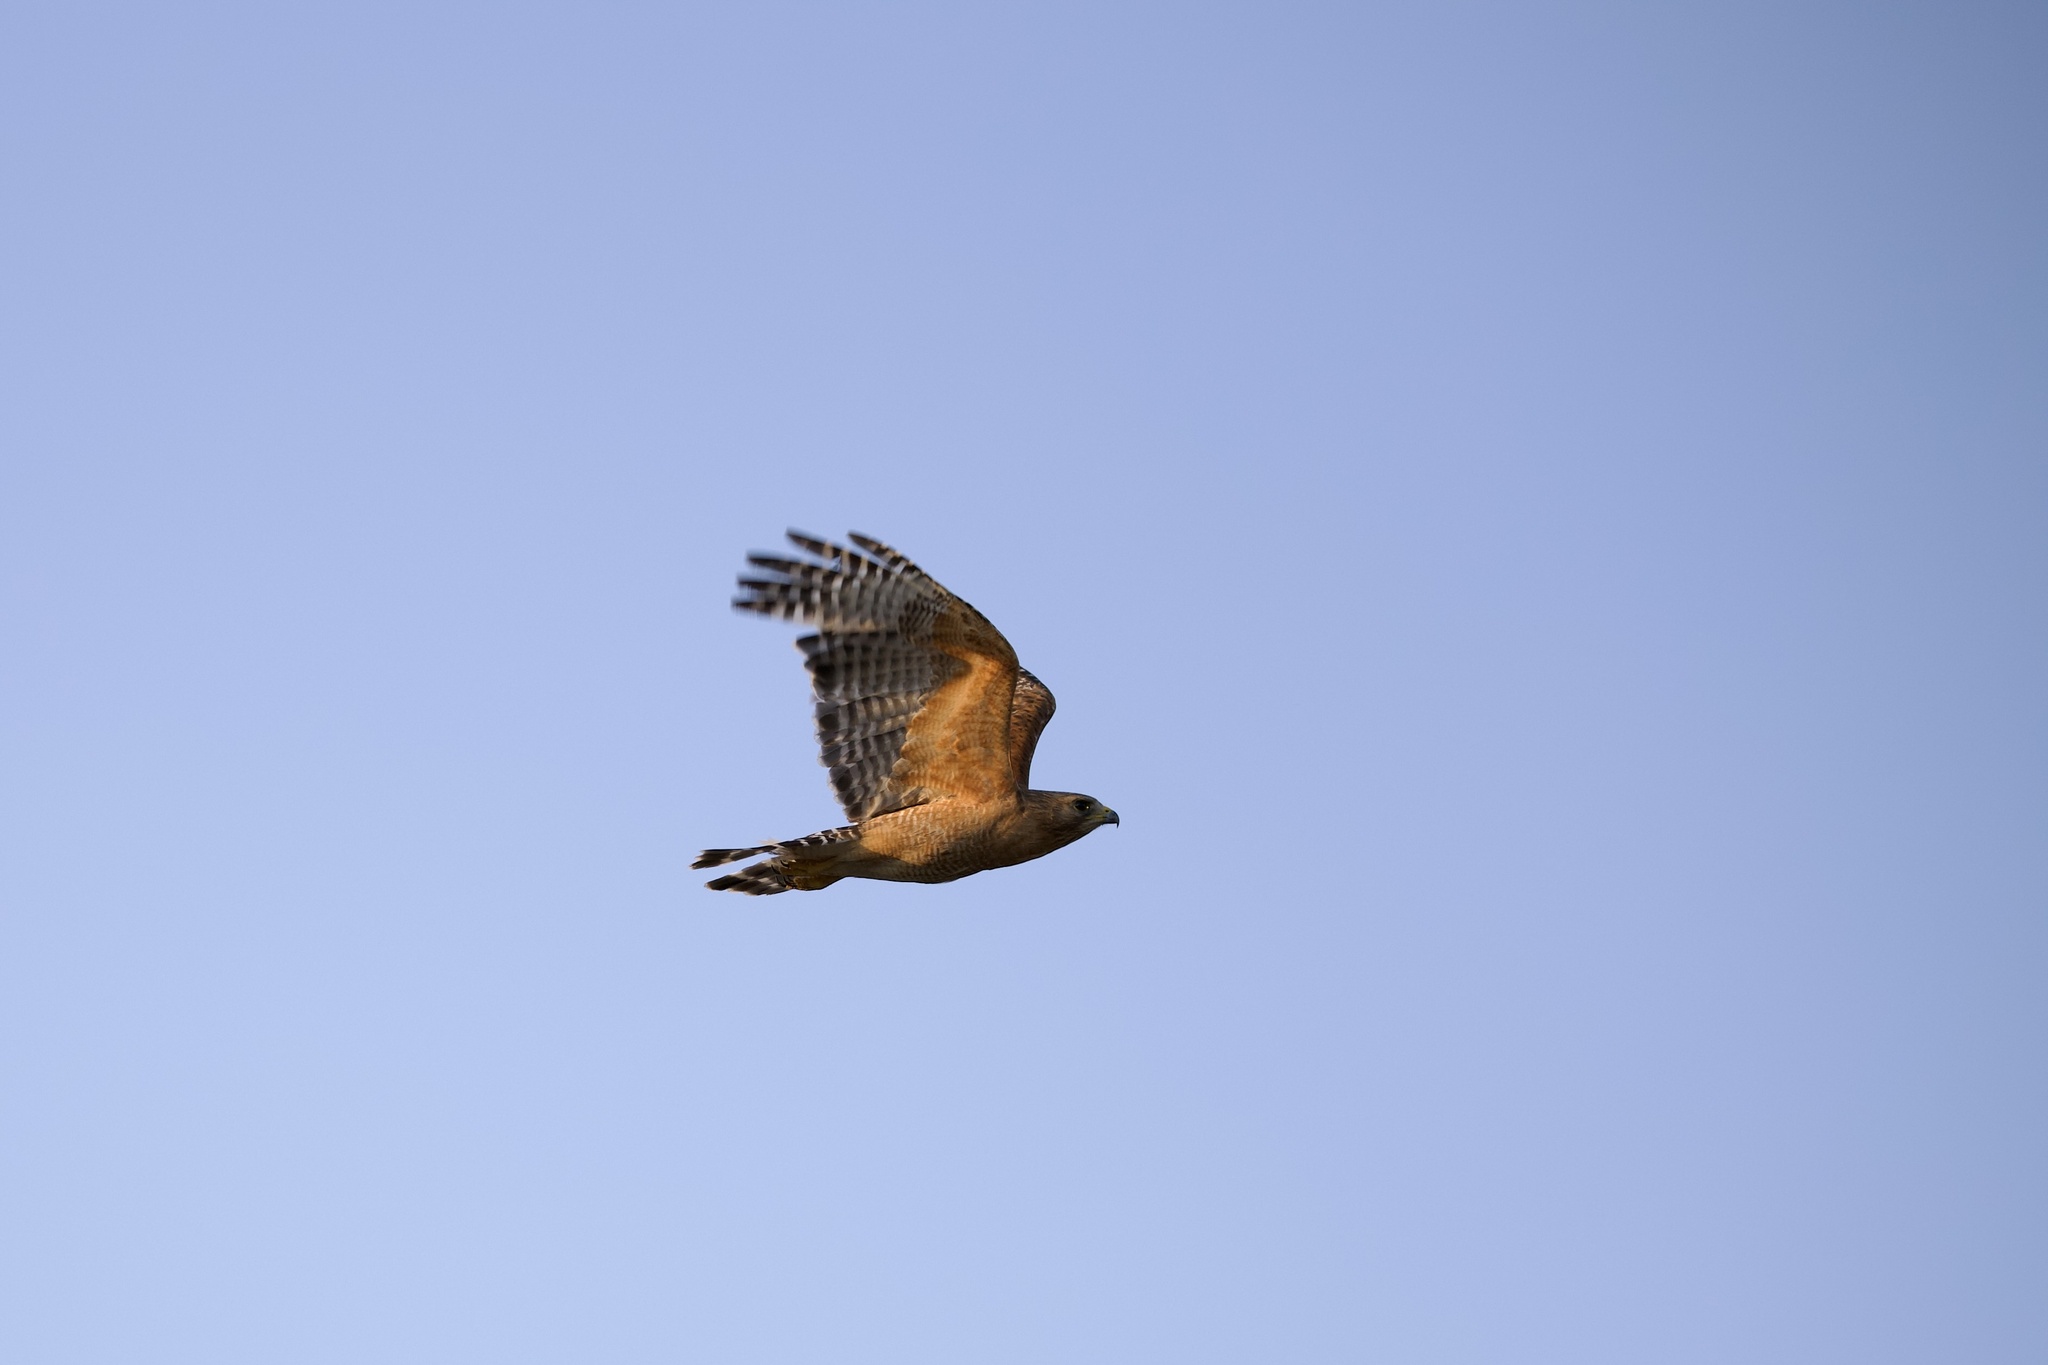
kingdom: Animalia
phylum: Chordata
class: Aves
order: Accipitriformes
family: Accipitridae
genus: Buteo
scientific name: Buteo lineatus
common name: Red-shouldered hawk
